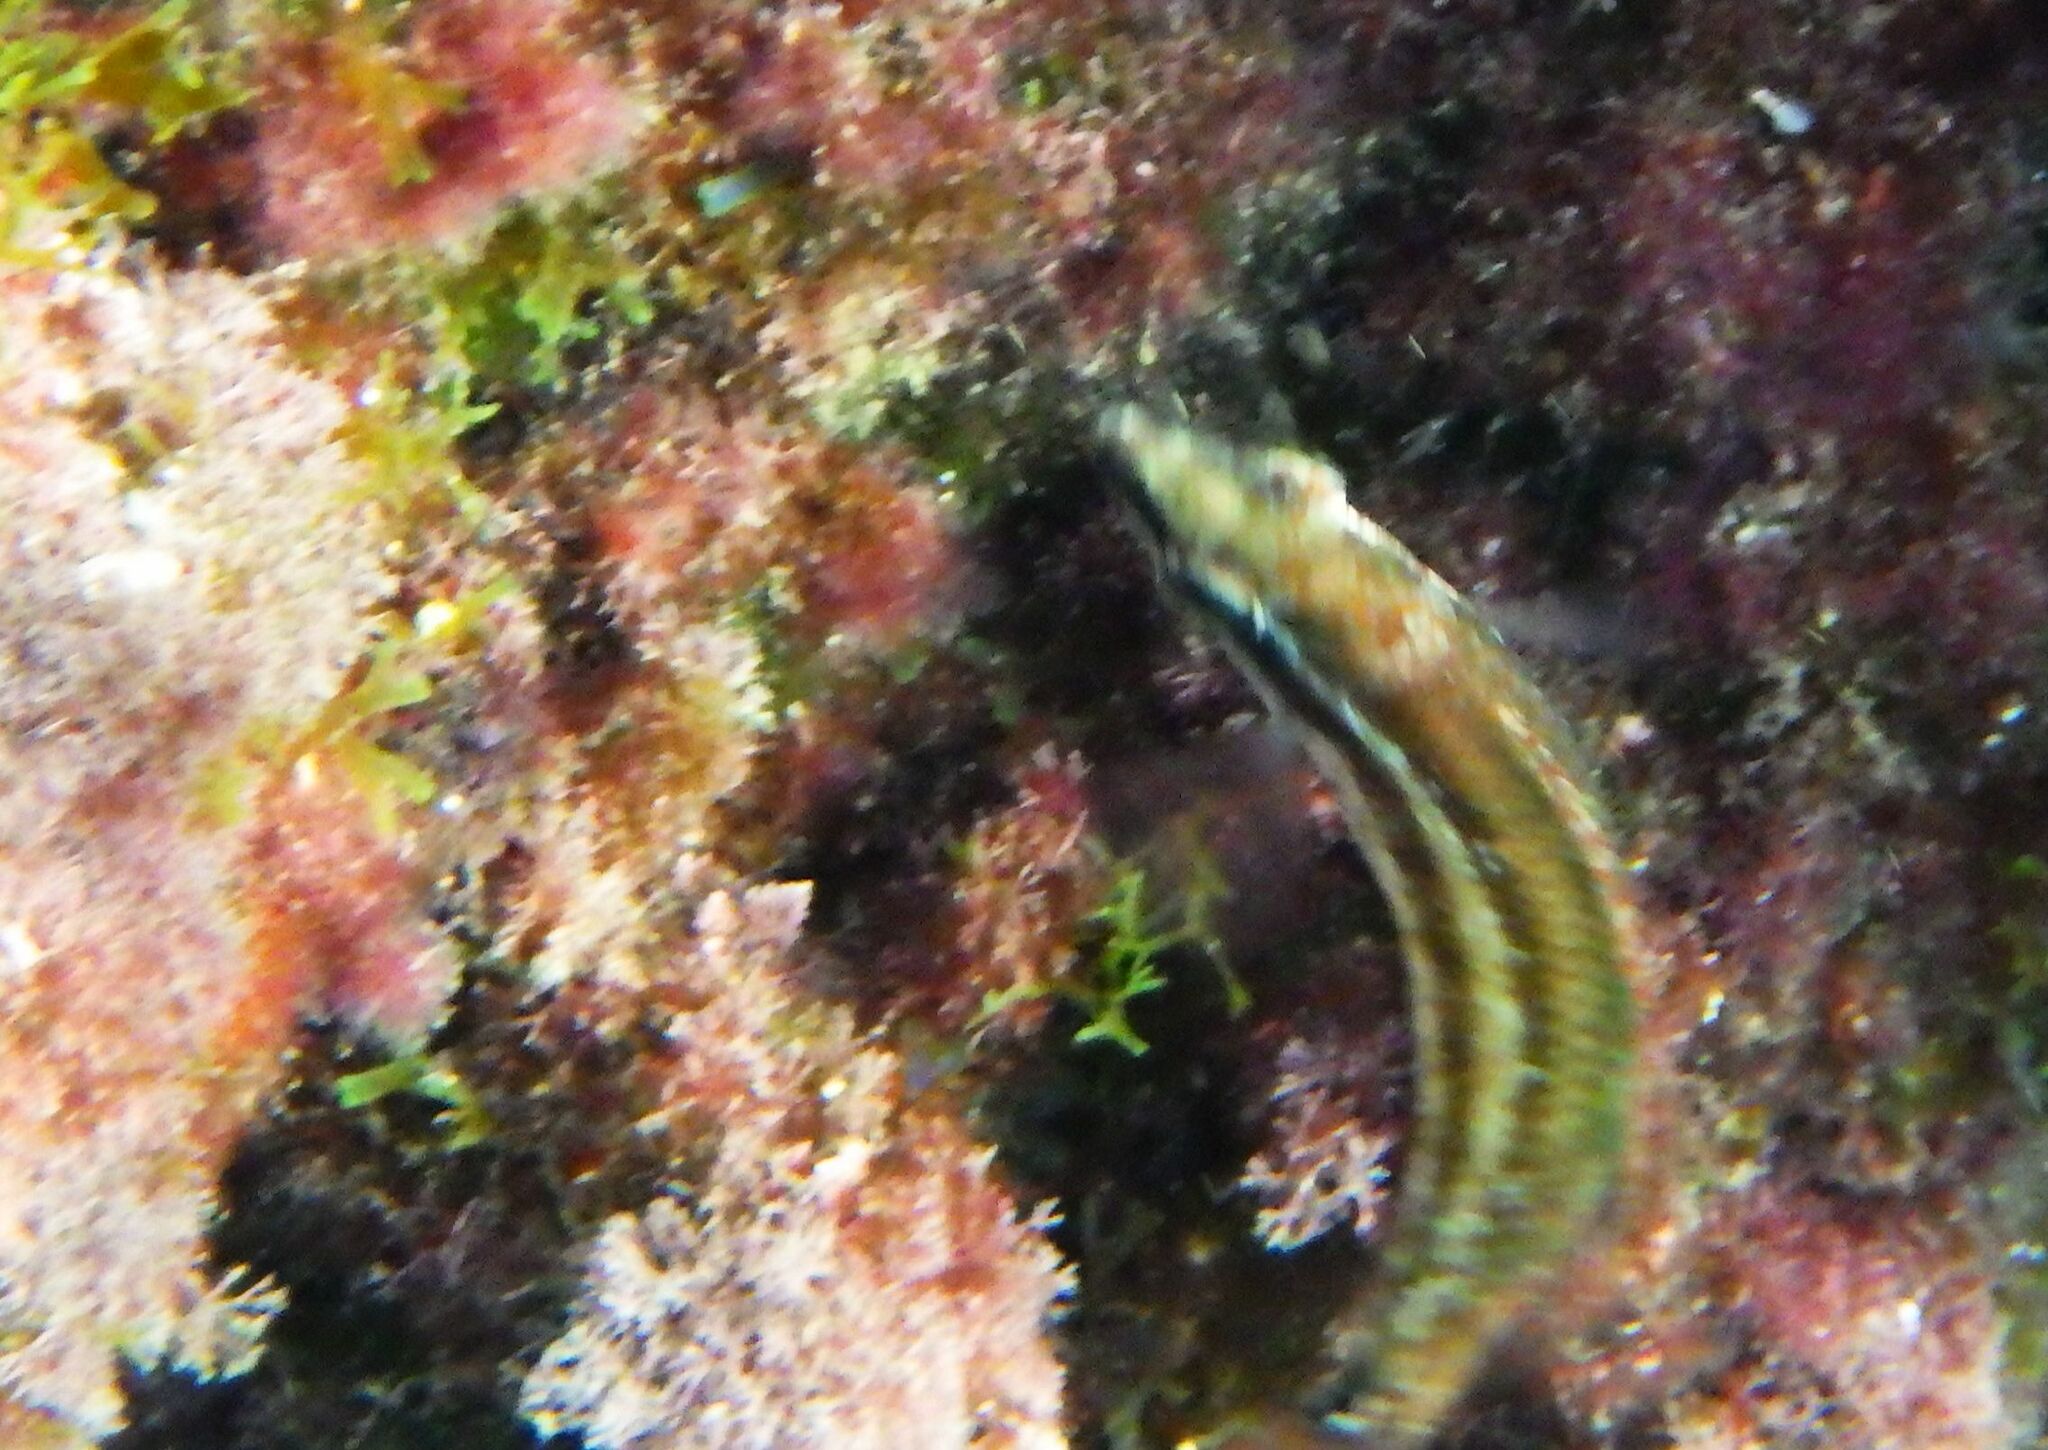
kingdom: Animalia
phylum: Chordata
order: Perciformes
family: Labridae
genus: Symphodus
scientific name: Symphodus ocellatus
